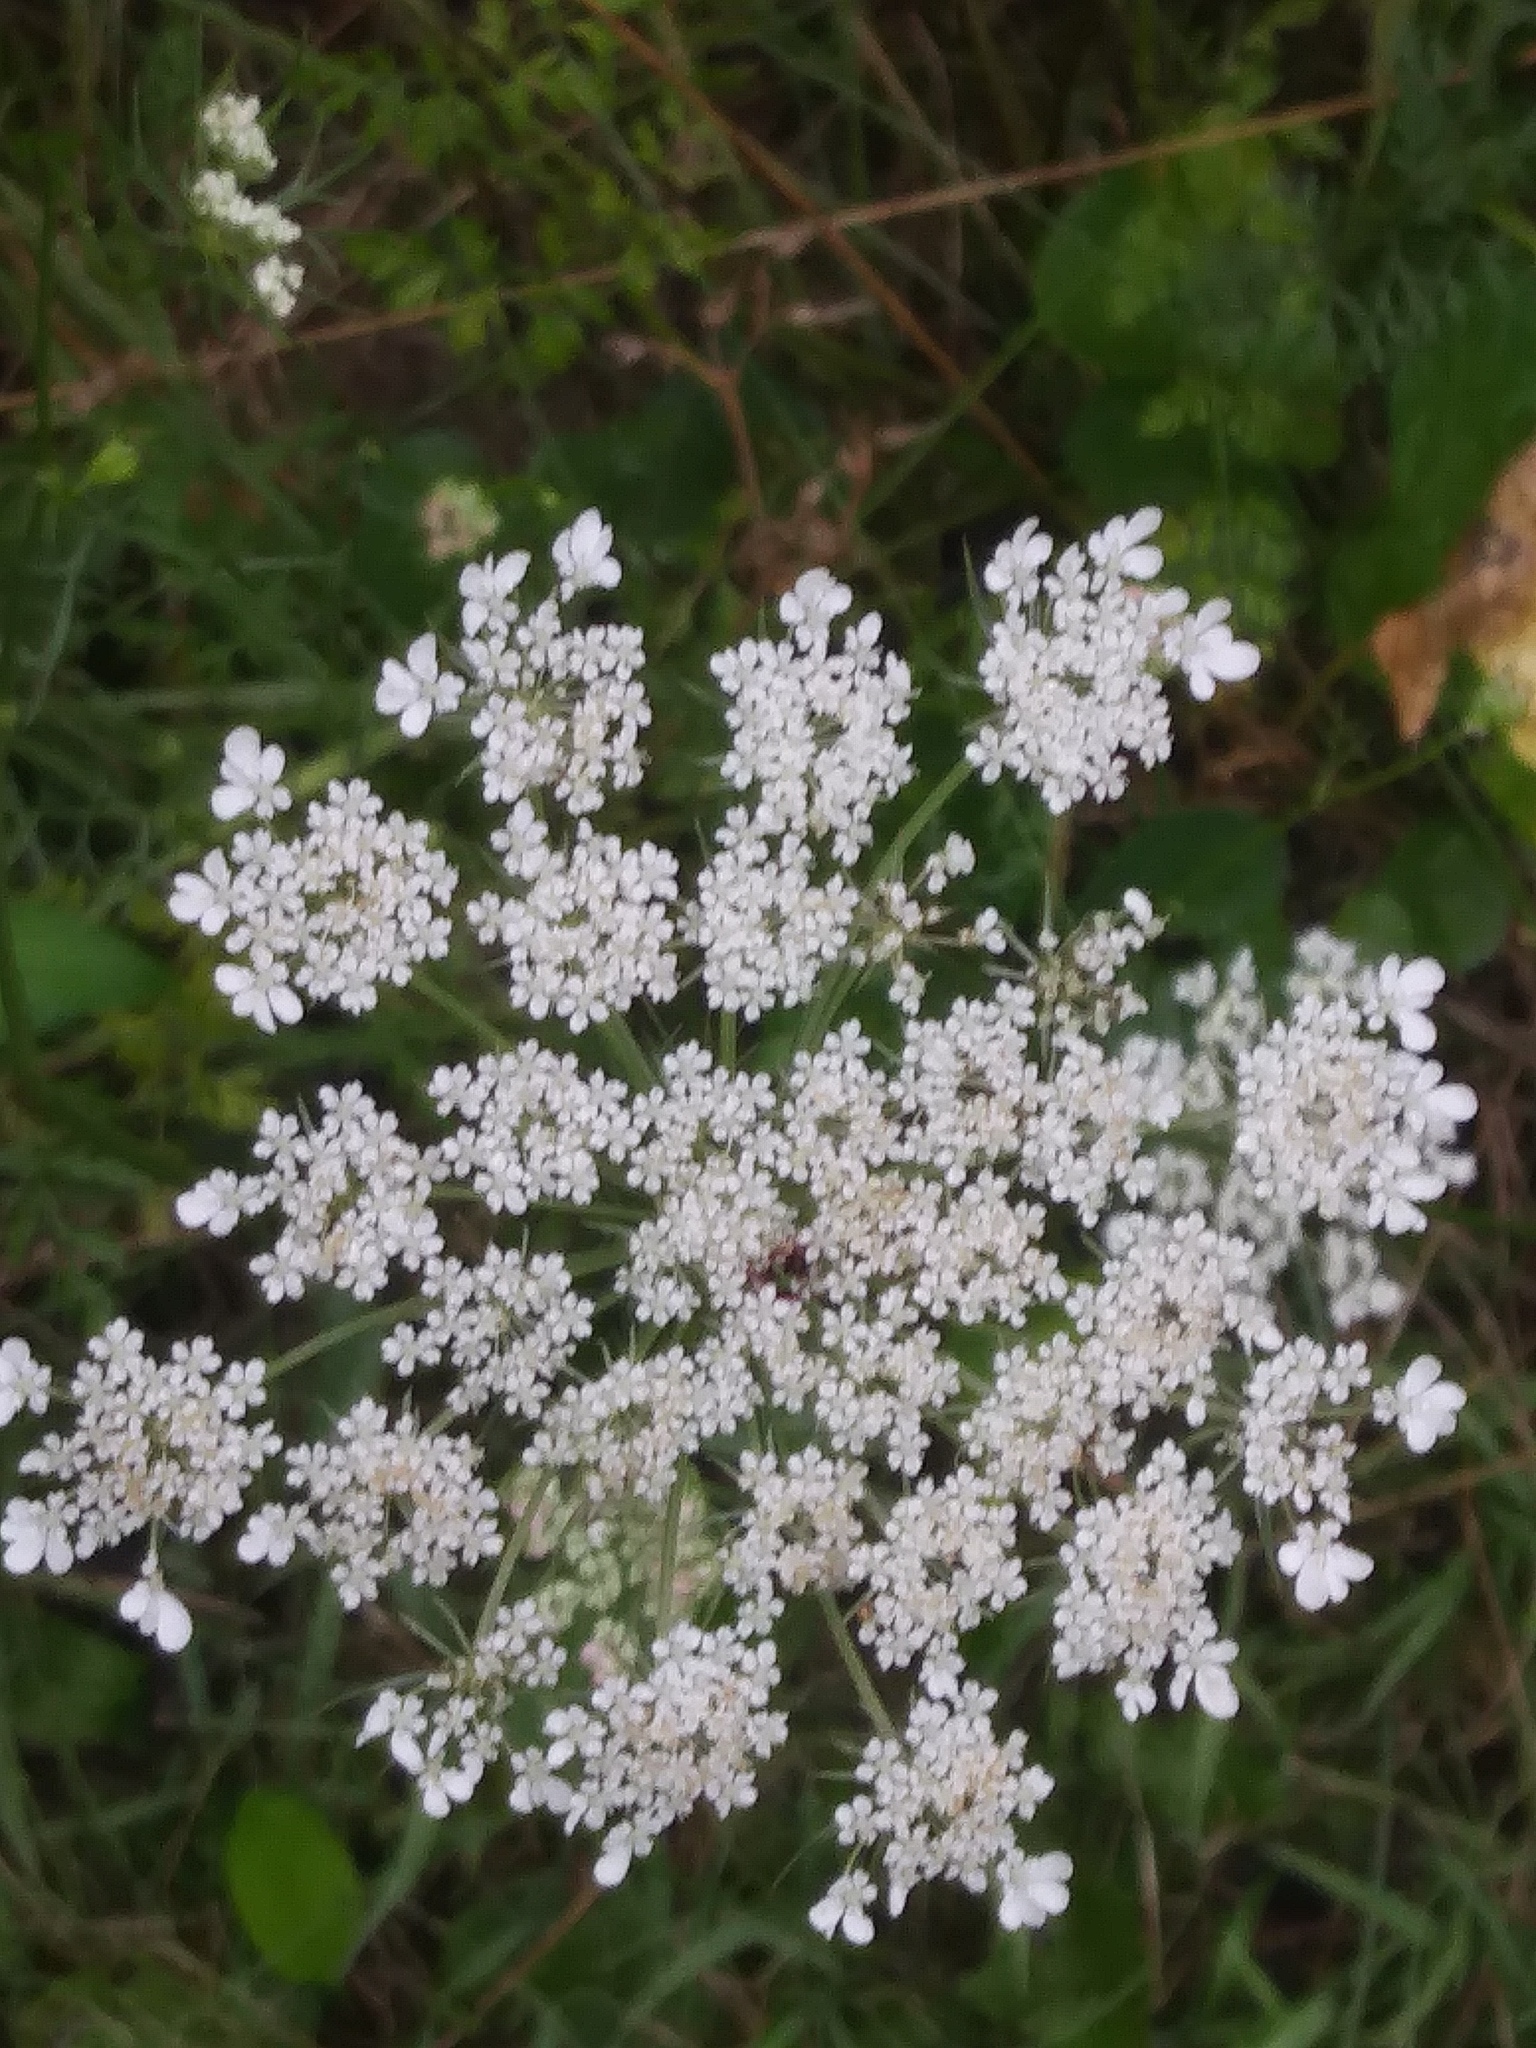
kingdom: Plantae
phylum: Tracheophyta
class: Magnoliopsida
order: Apiales
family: Apiaceae
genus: Daucus
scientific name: Daucus carota
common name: Wild carrot
